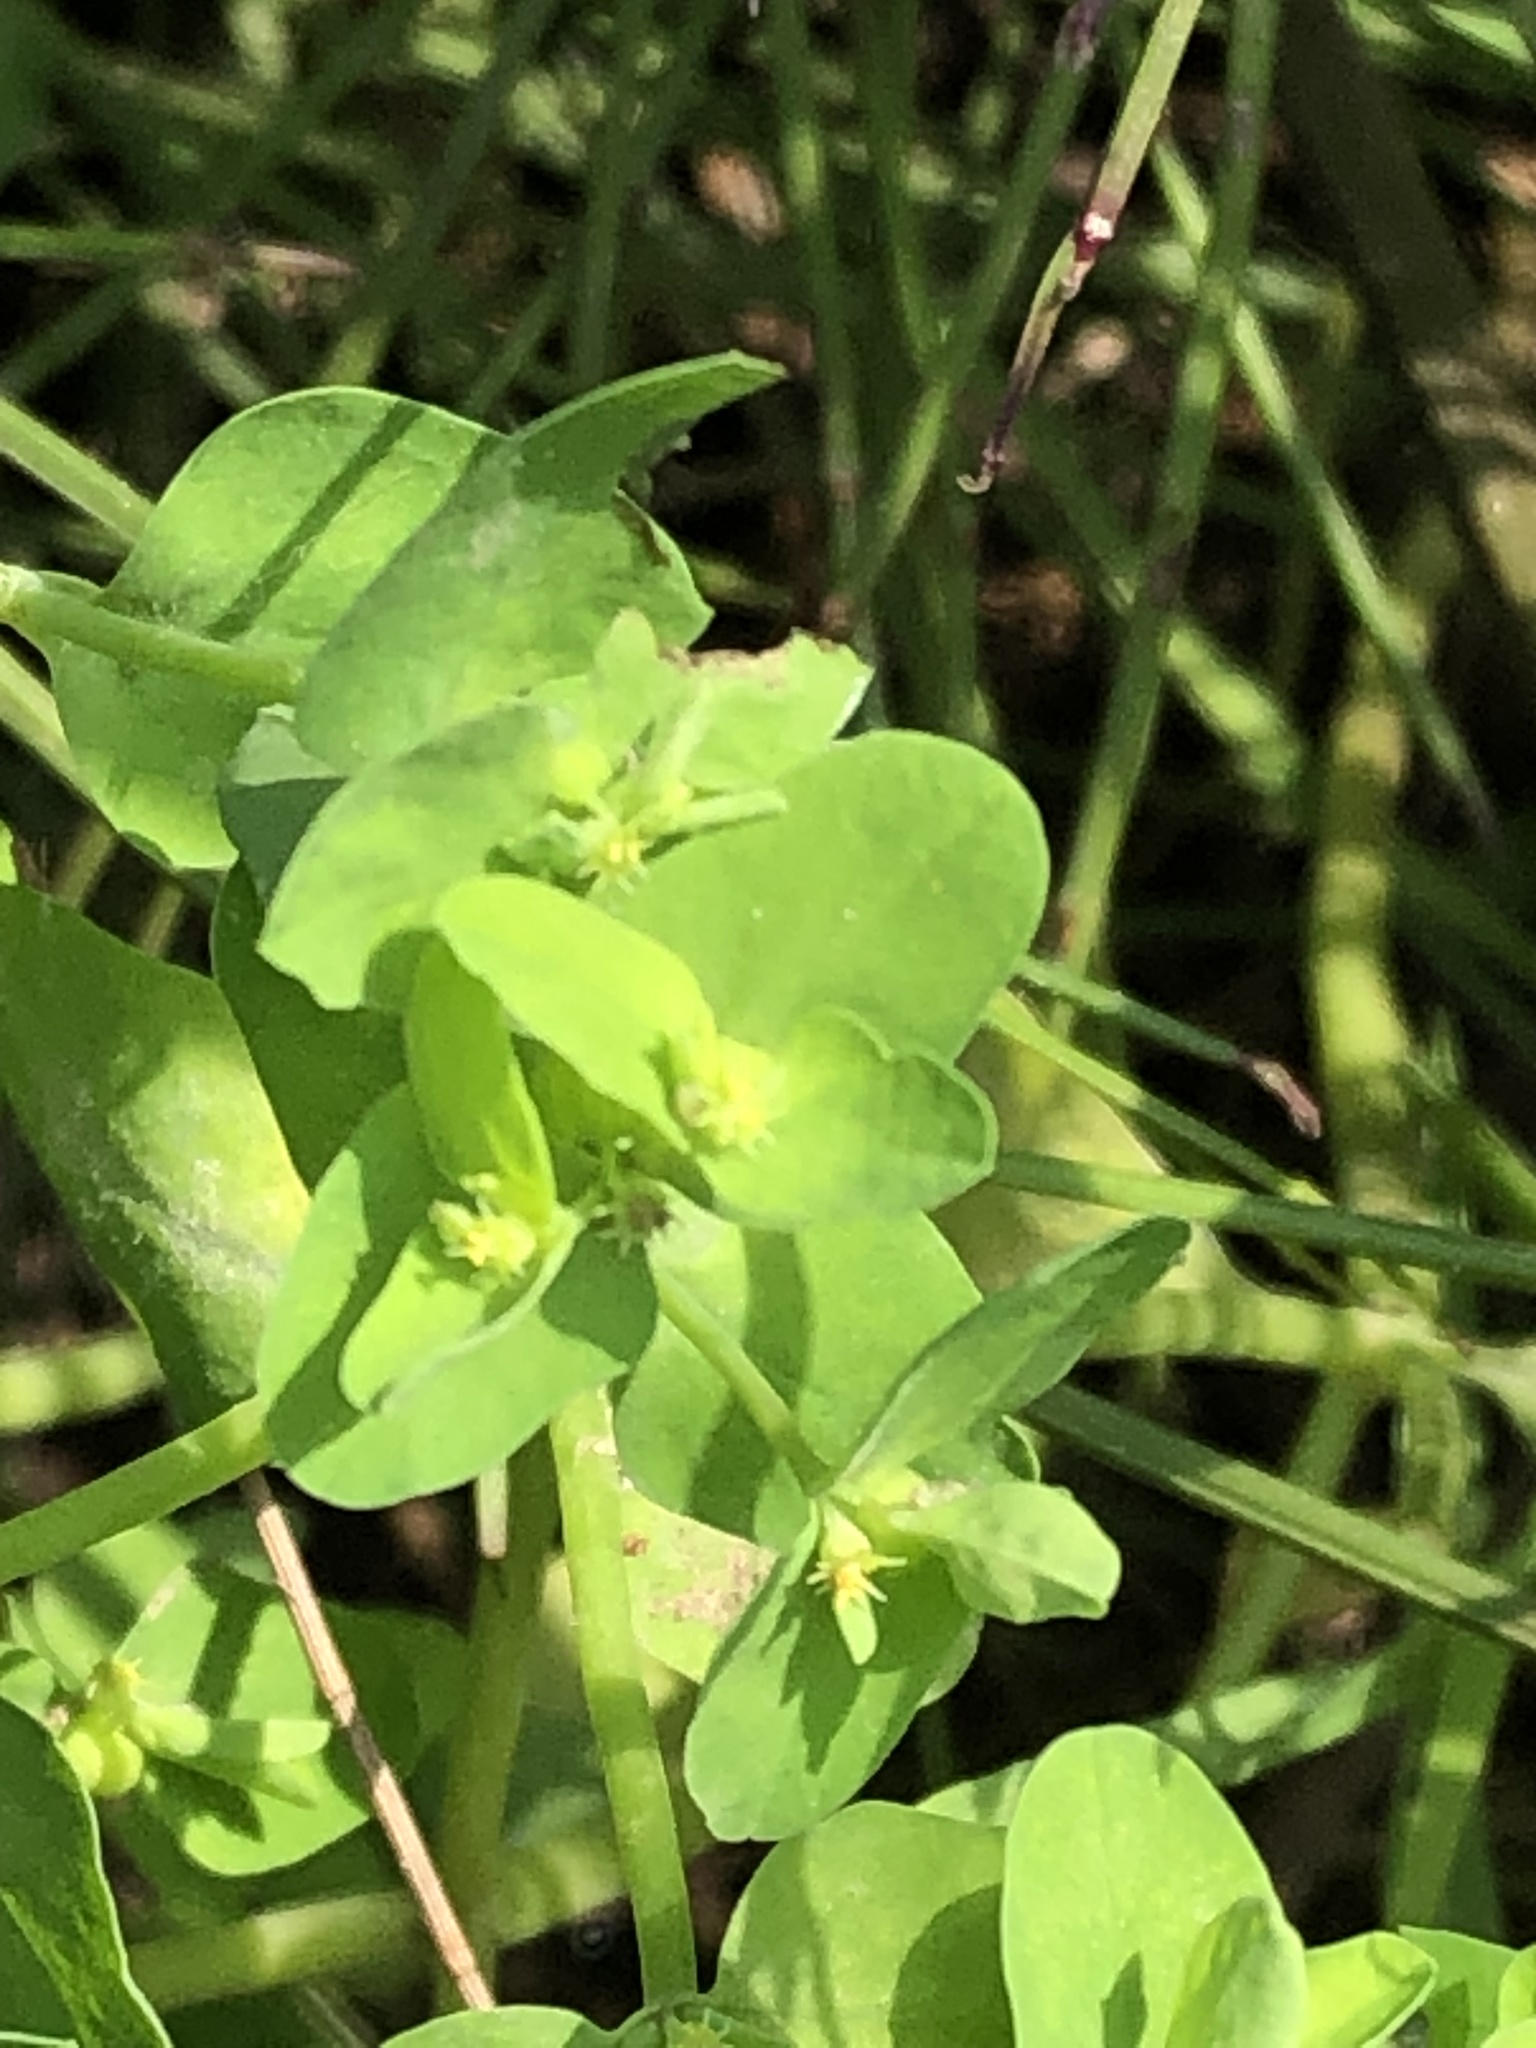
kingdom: Plantae
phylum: Tracheophyta
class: Magnoliopsida
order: Malpighiales
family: Euphorbiaceae
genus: Euphorbia
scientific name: Euphorbia peplus
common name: Petty spurge
